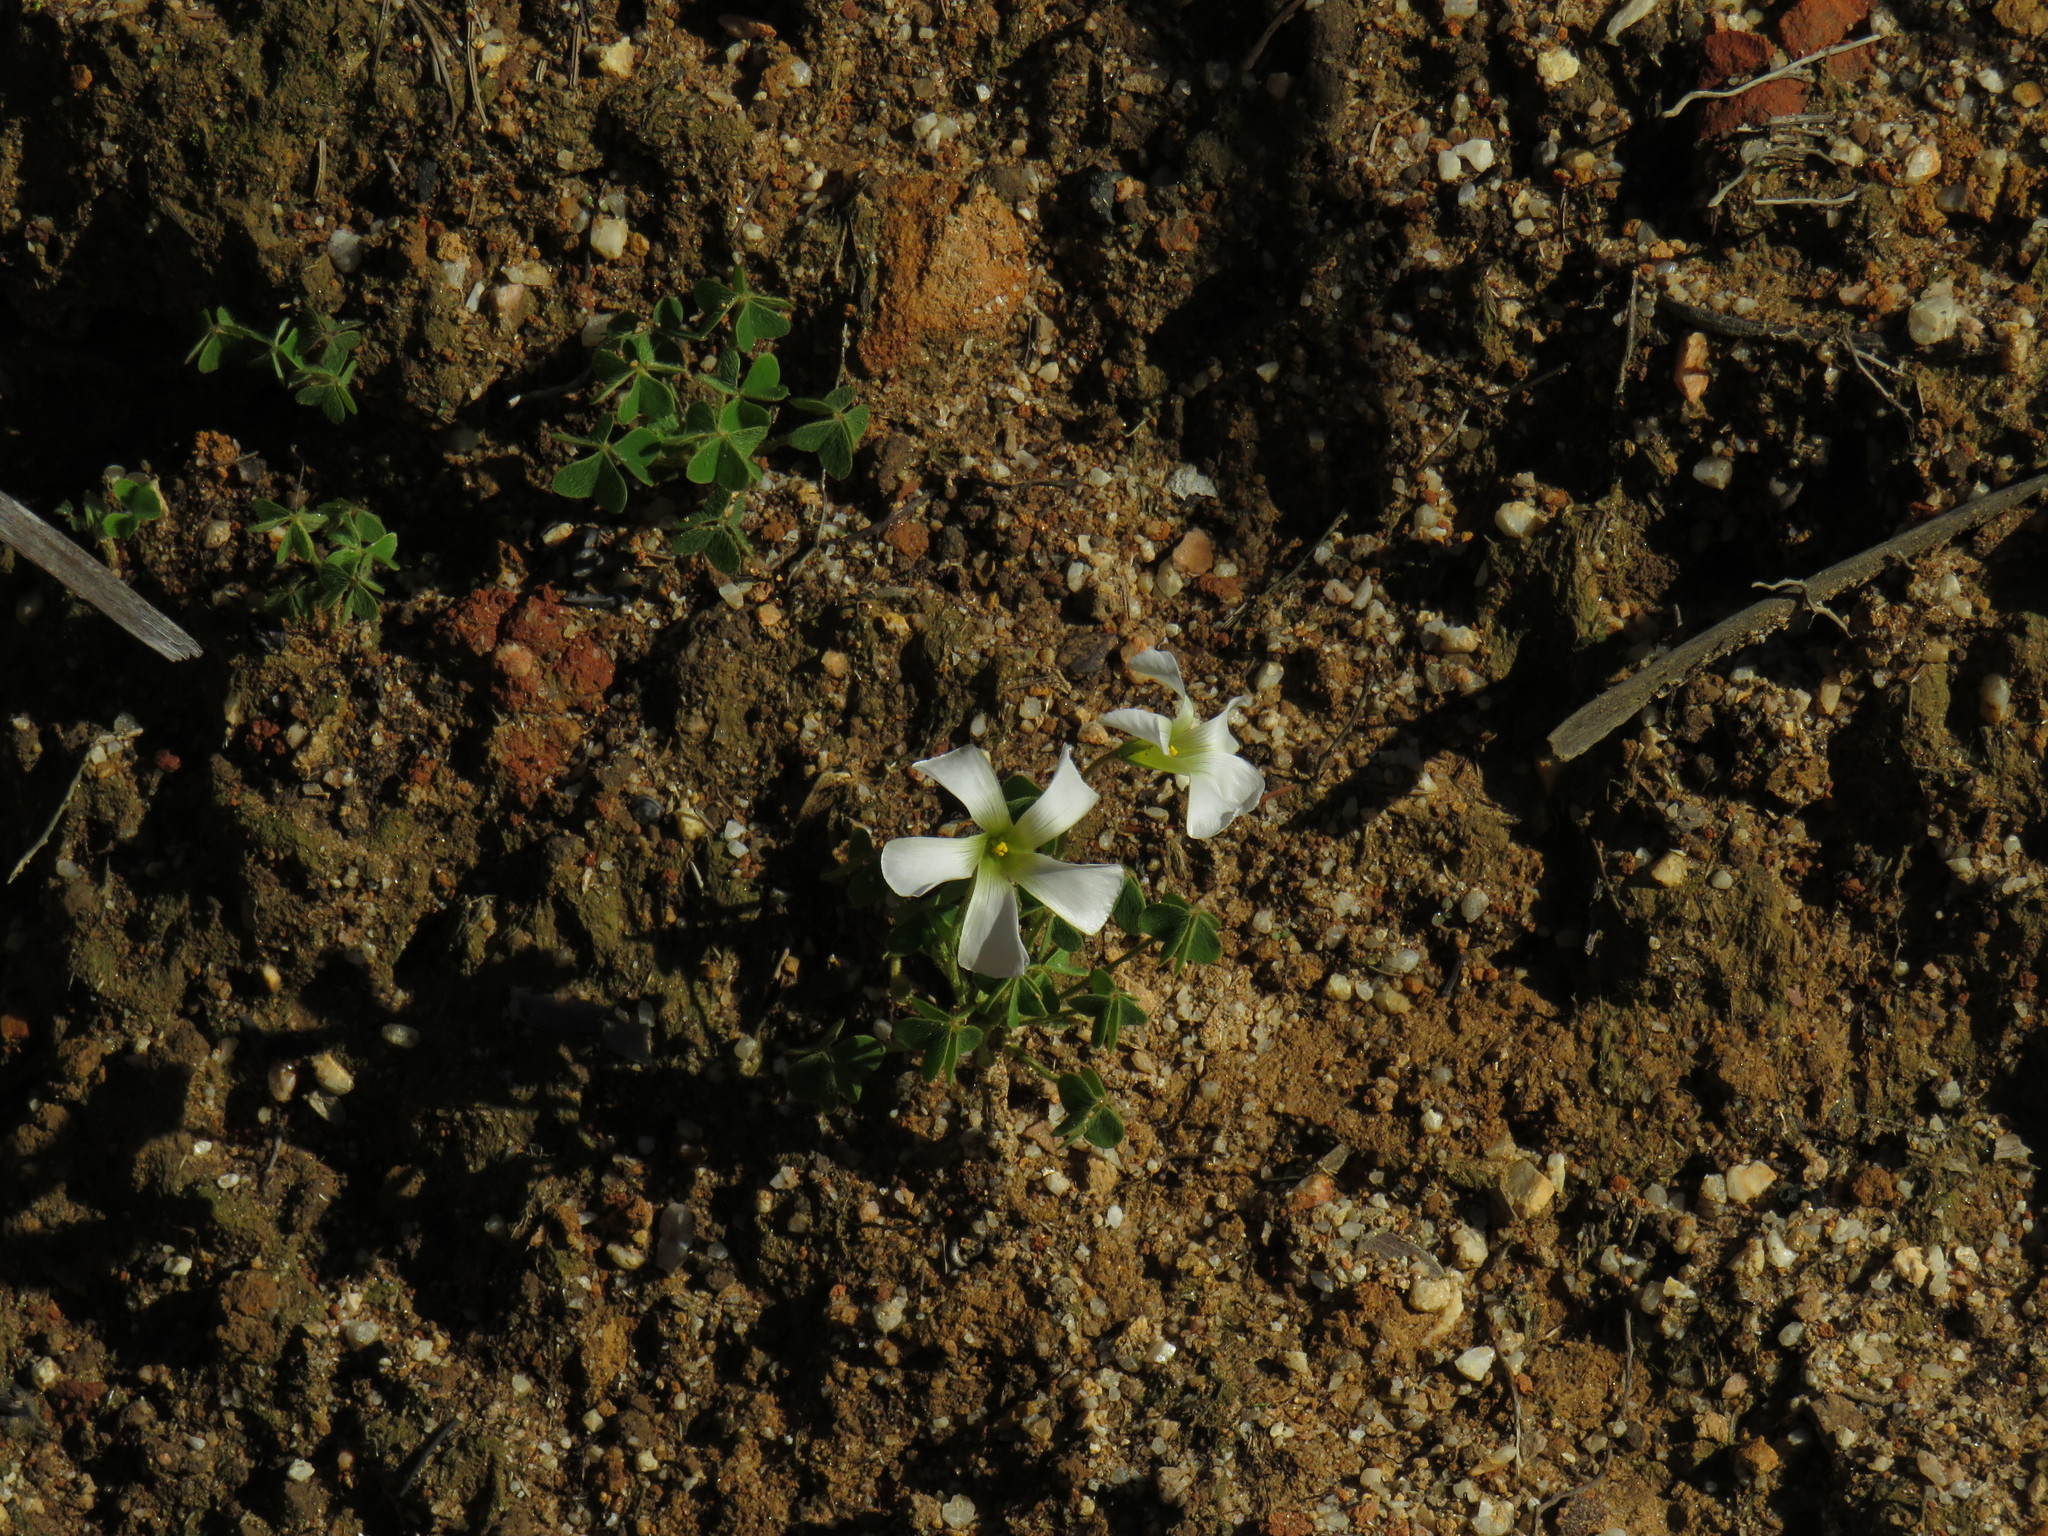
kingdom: Plantae
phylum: Tracheophyta
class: Magnoliopsida
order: Oxalidales
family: Oxalidaceae
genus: Oxalis
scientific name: Oxalis lanata
